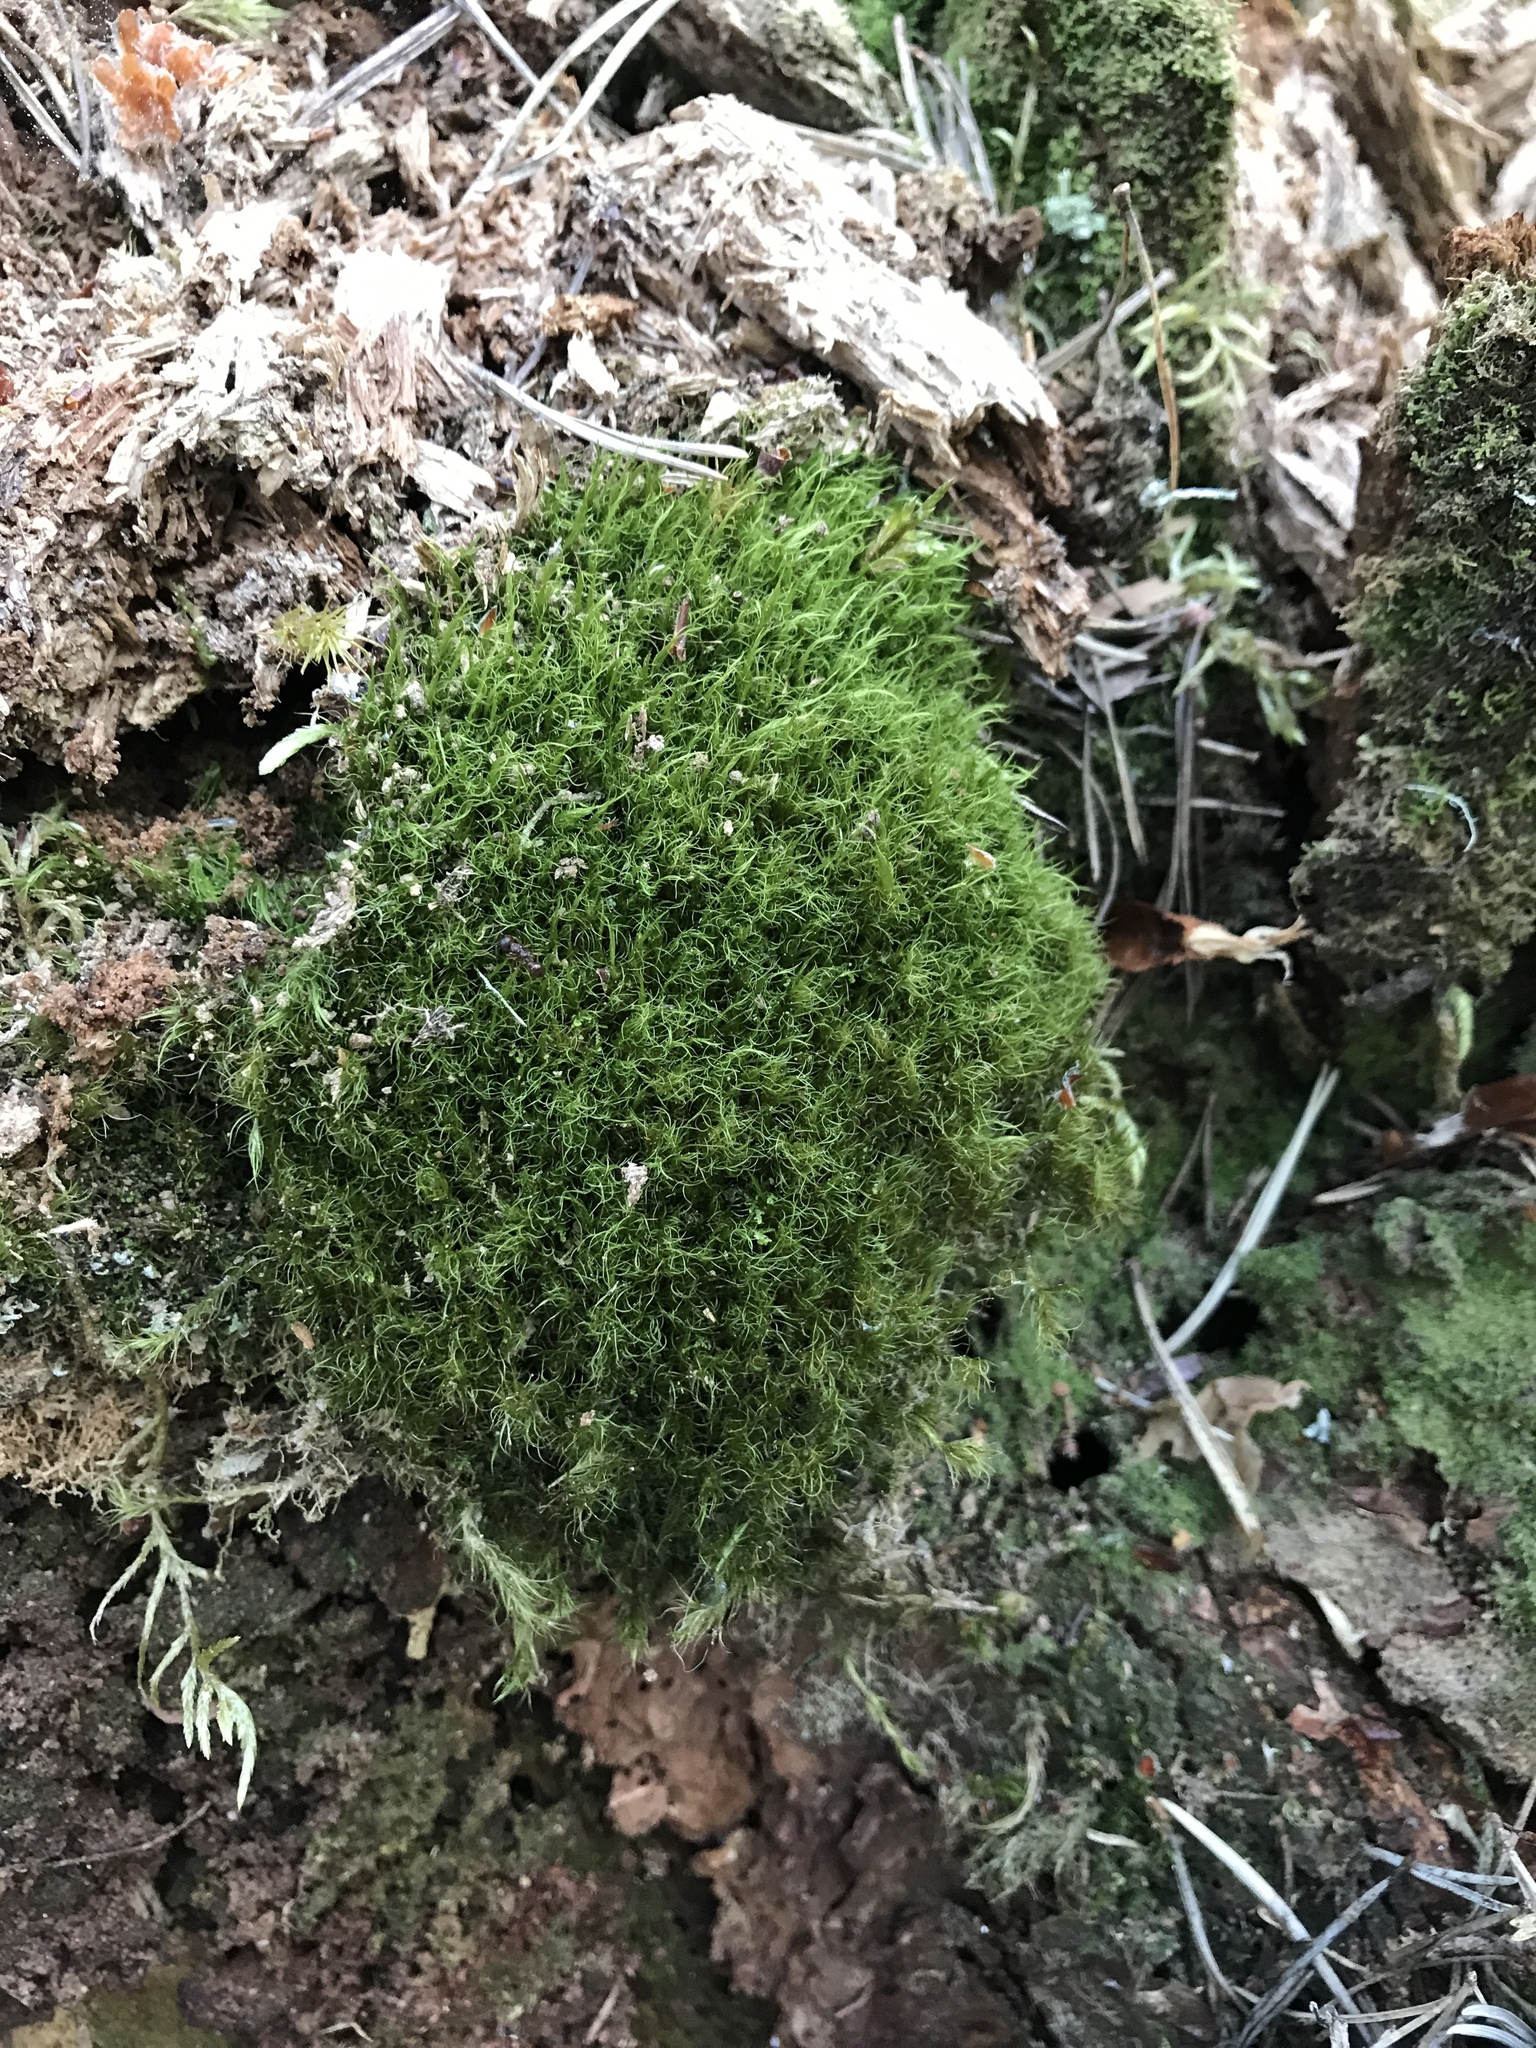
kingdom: Plantae
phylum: Bryophyta
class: Bryopsida
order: Dicranales
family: Dicranaceae
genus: Dicranum
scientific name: Dicranum fuscescens
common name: Curly heron's-bill moss
